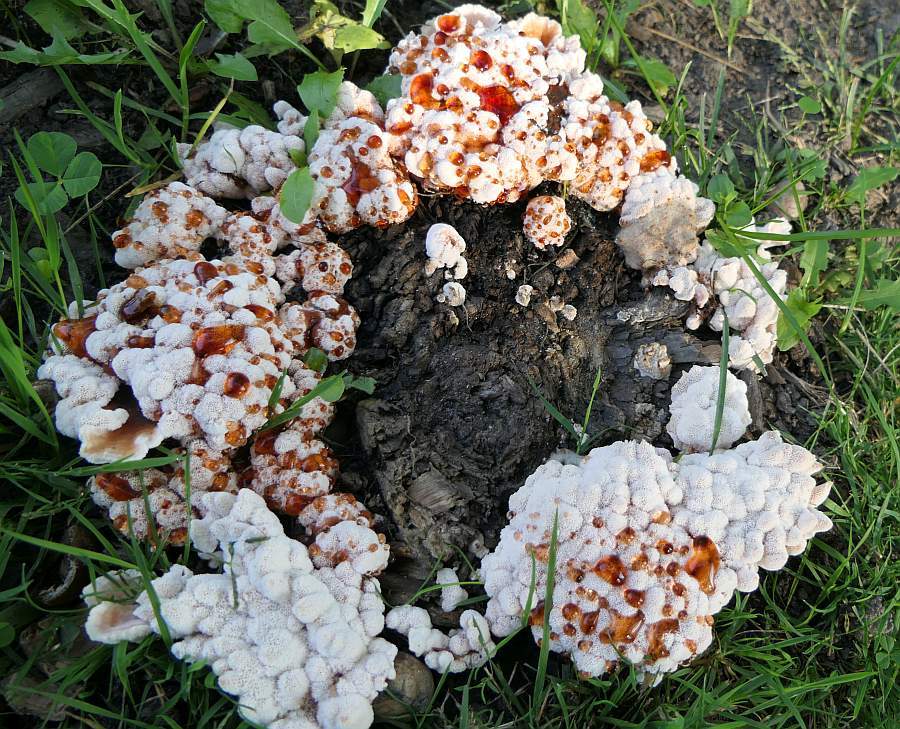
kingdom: Fungi
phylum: Basidiomycota
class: Agaricomycetes
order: Polyporales
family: Podoscyphaceae
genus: Abortiporus
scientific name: Abortiporus biennis
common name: Blushing rosette
